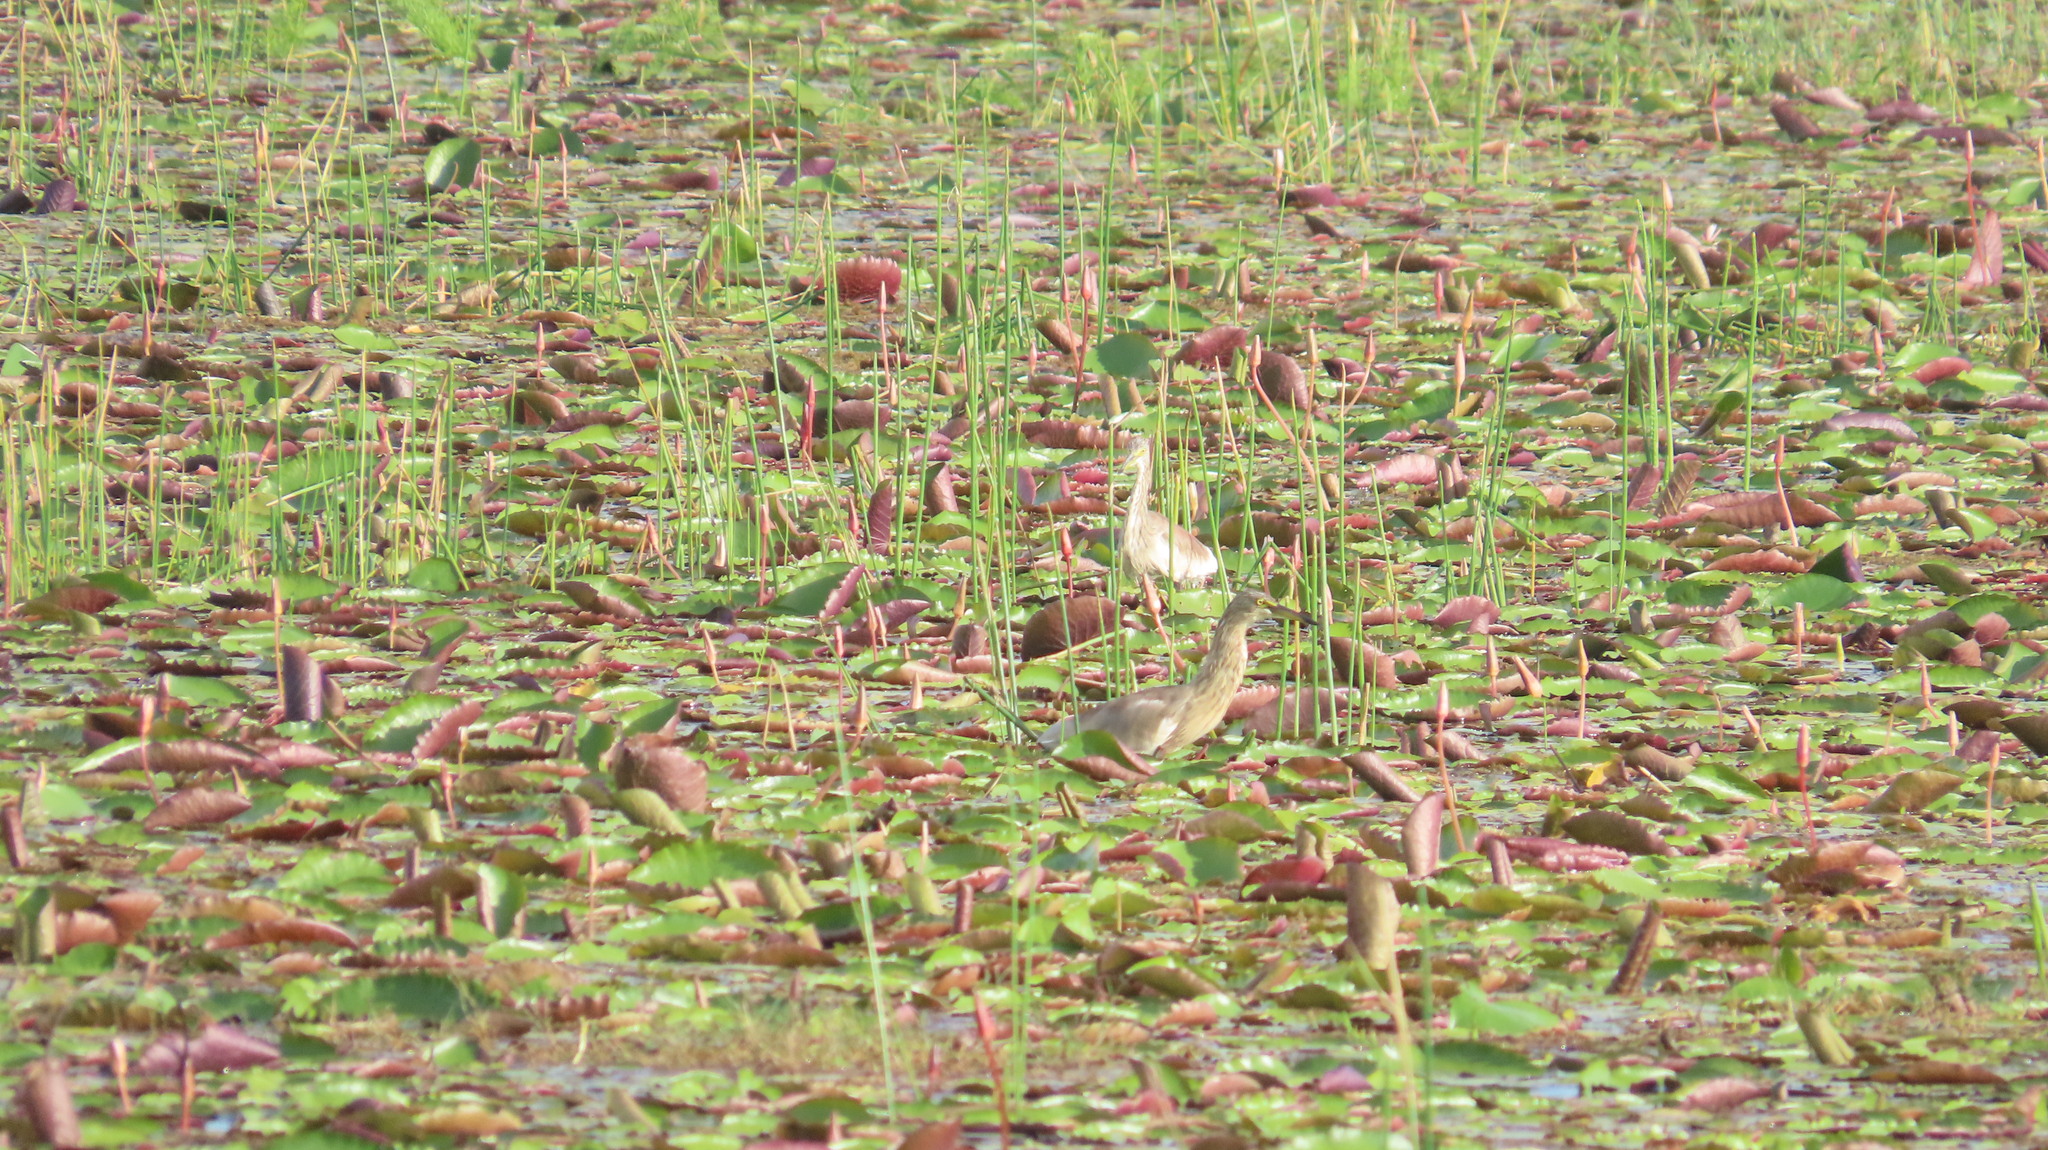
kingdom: Animalia
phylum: Chordata
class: Aves
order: Pelecaniformes
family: Ardeidae
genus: Ardeola
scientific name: Ardeola grayii
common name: Indian pond heron
